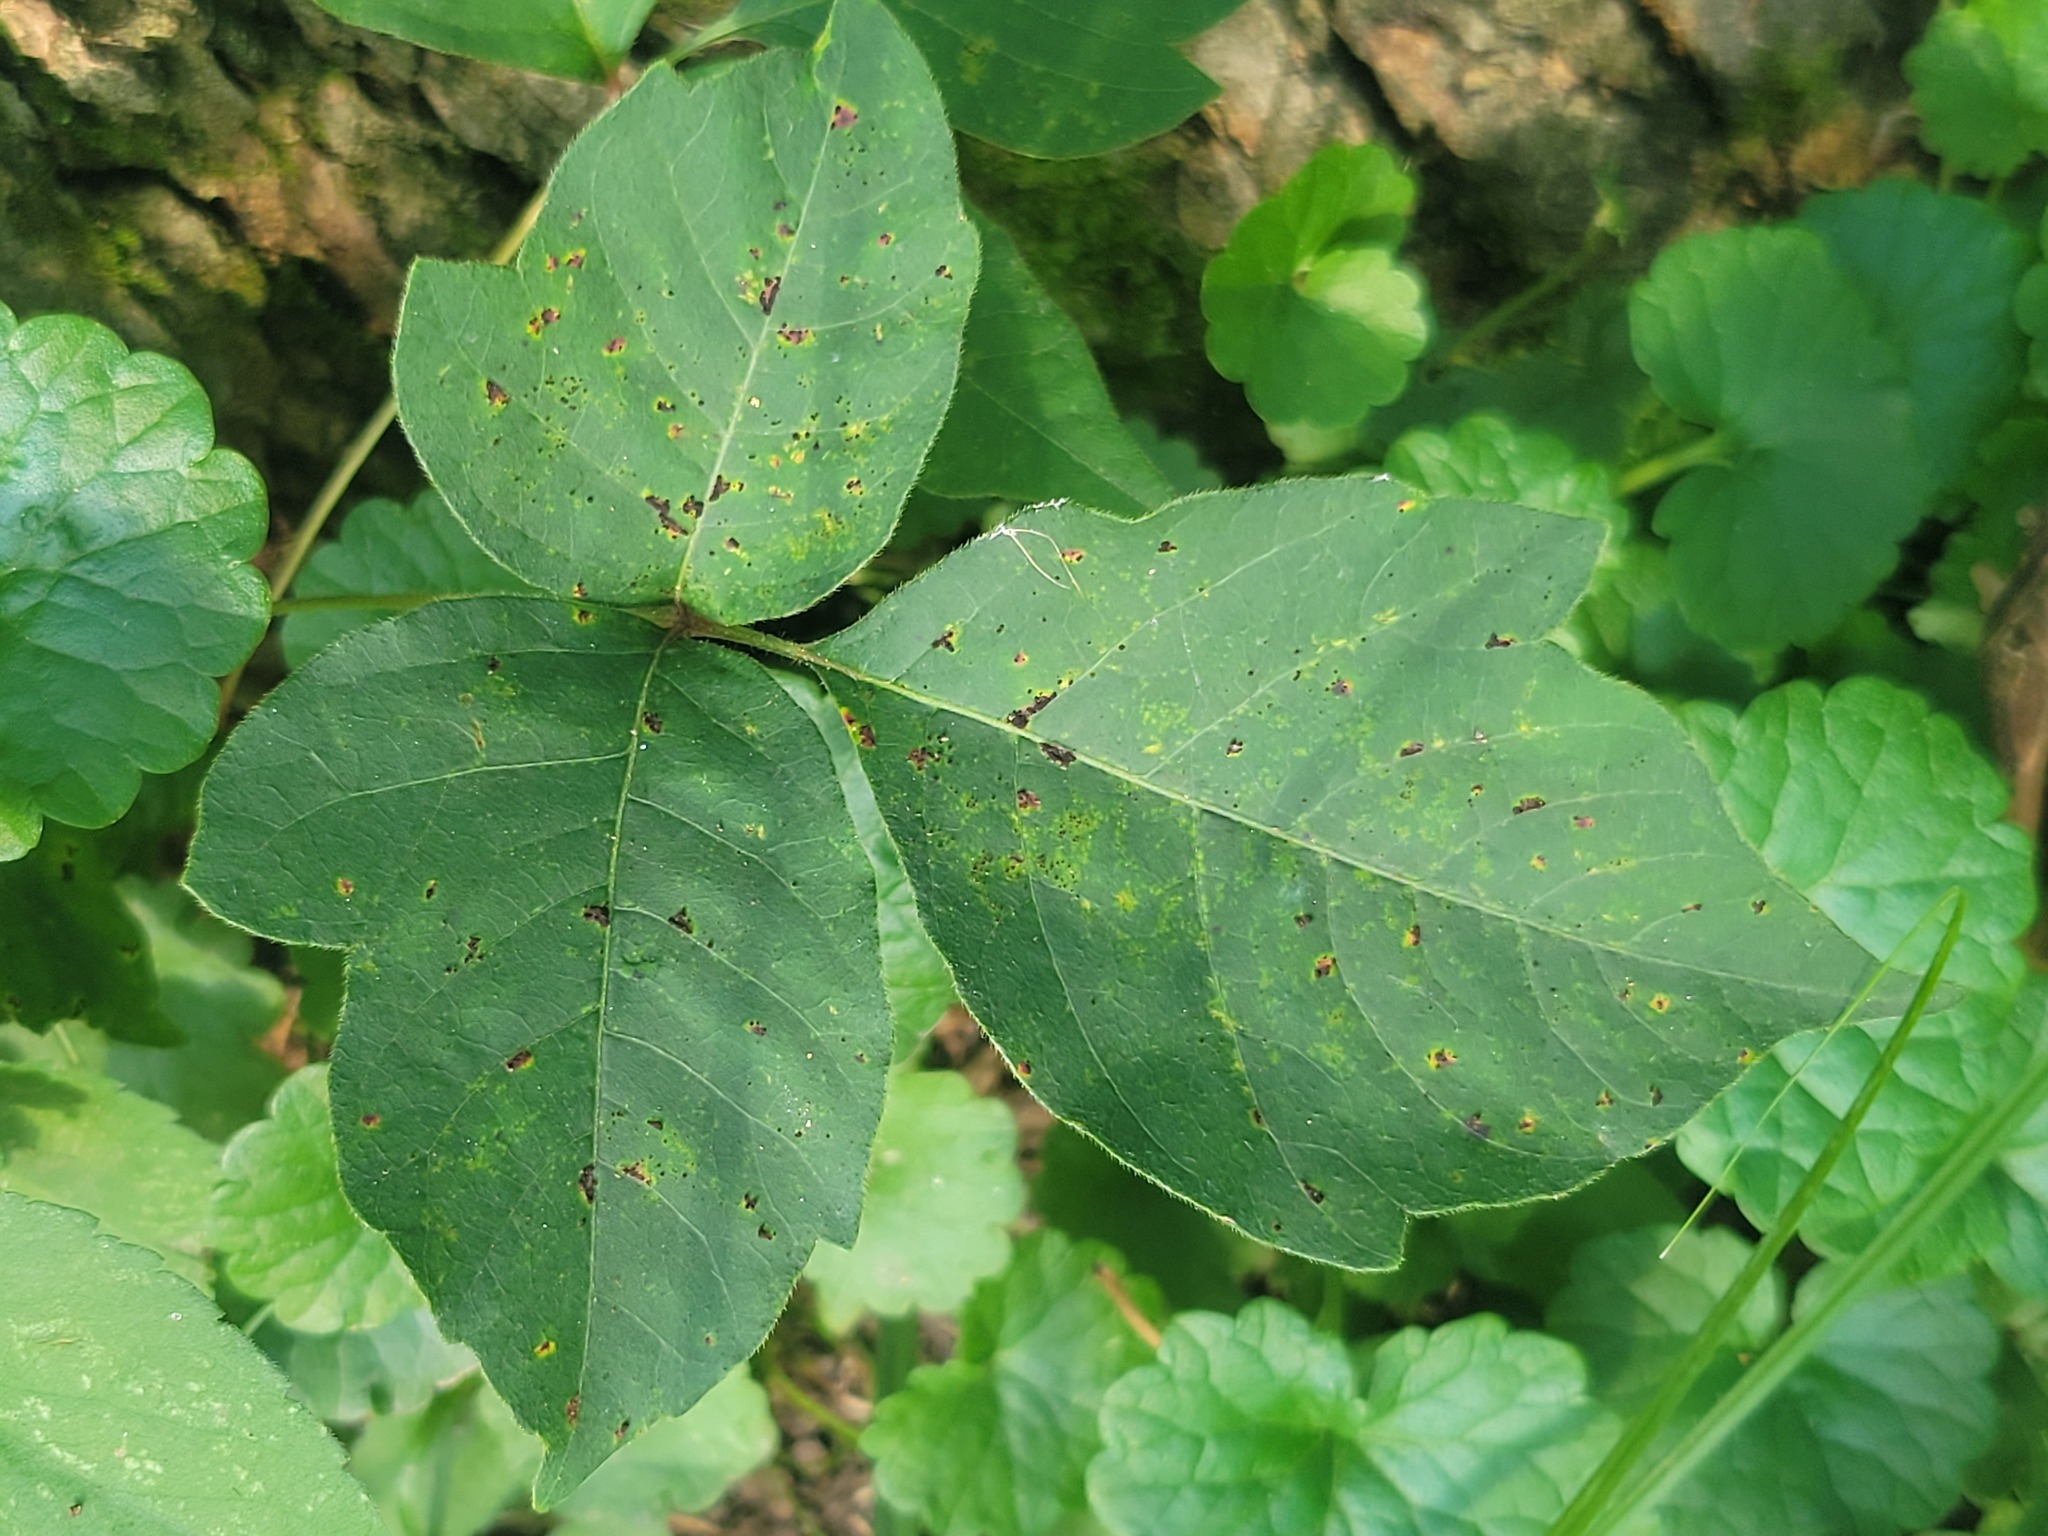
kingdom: Plantae
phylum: Tracheophyta
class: Magnoliopsida
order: Sapindales
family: Anacardiaceae
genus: Toxicodendron
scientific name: Toxicodendron radicans
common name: Poison ivy
